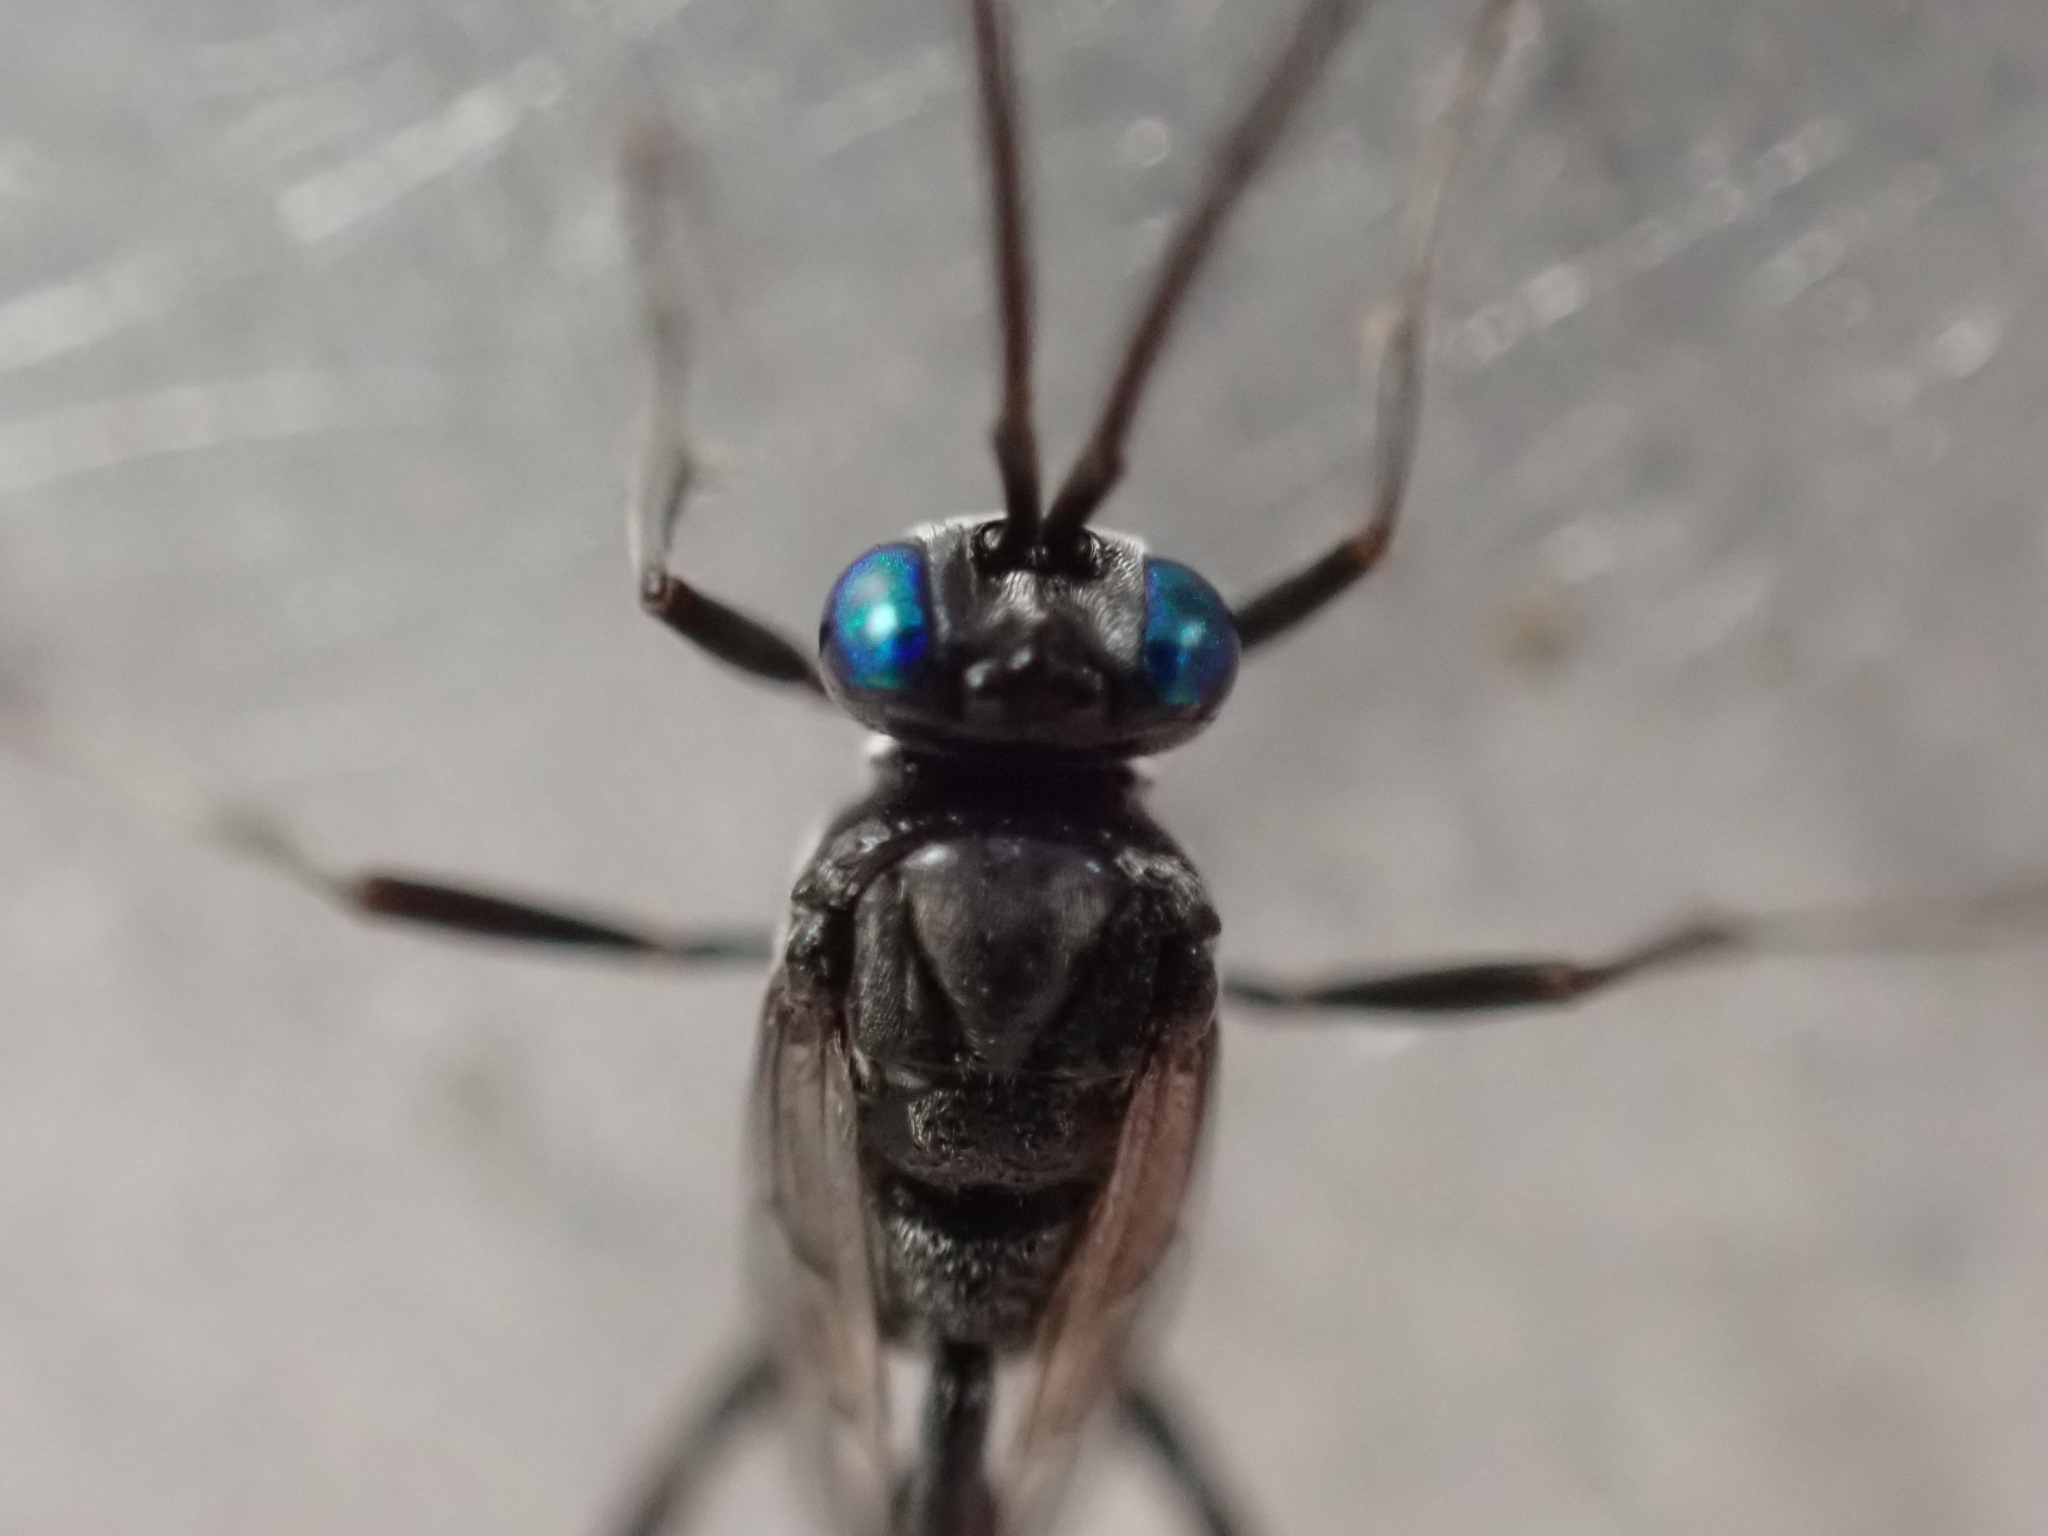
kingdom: Animalia
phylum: Arthropoda
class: Insecta
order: Hymenoptera
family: Evaniidae
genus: Evania
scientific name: Evania appendigaster
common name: Ensign wasp
